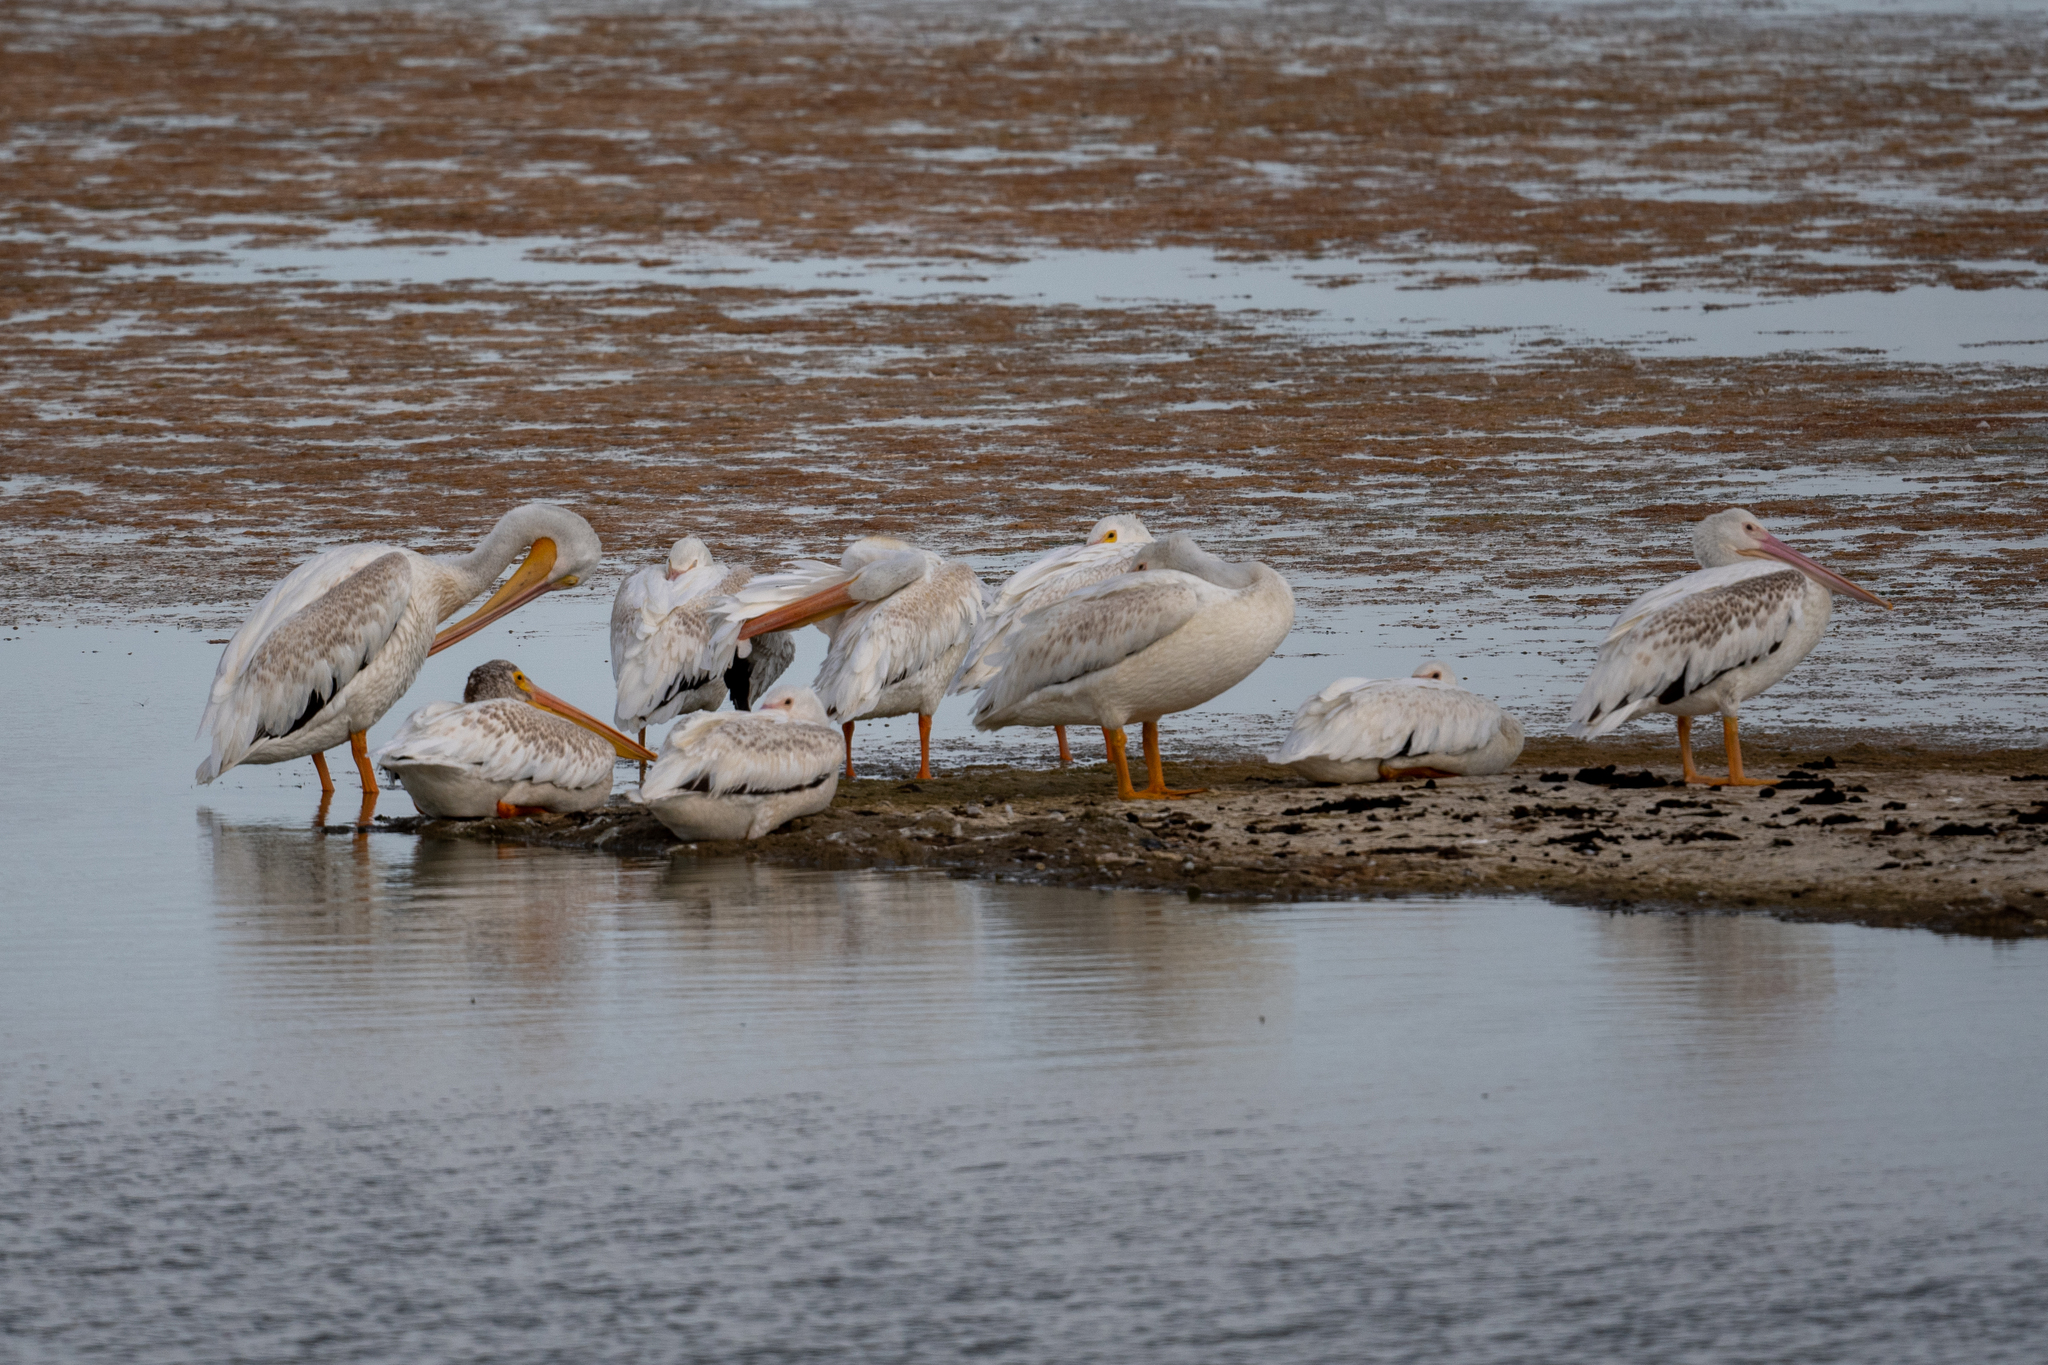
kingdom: Animalia
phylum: Chordata
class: Aves
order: Pelecaniformes
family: Pelecanidae
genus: Pelecanus
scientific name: Pelecanus erythrorhynchos
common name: American white pelican
